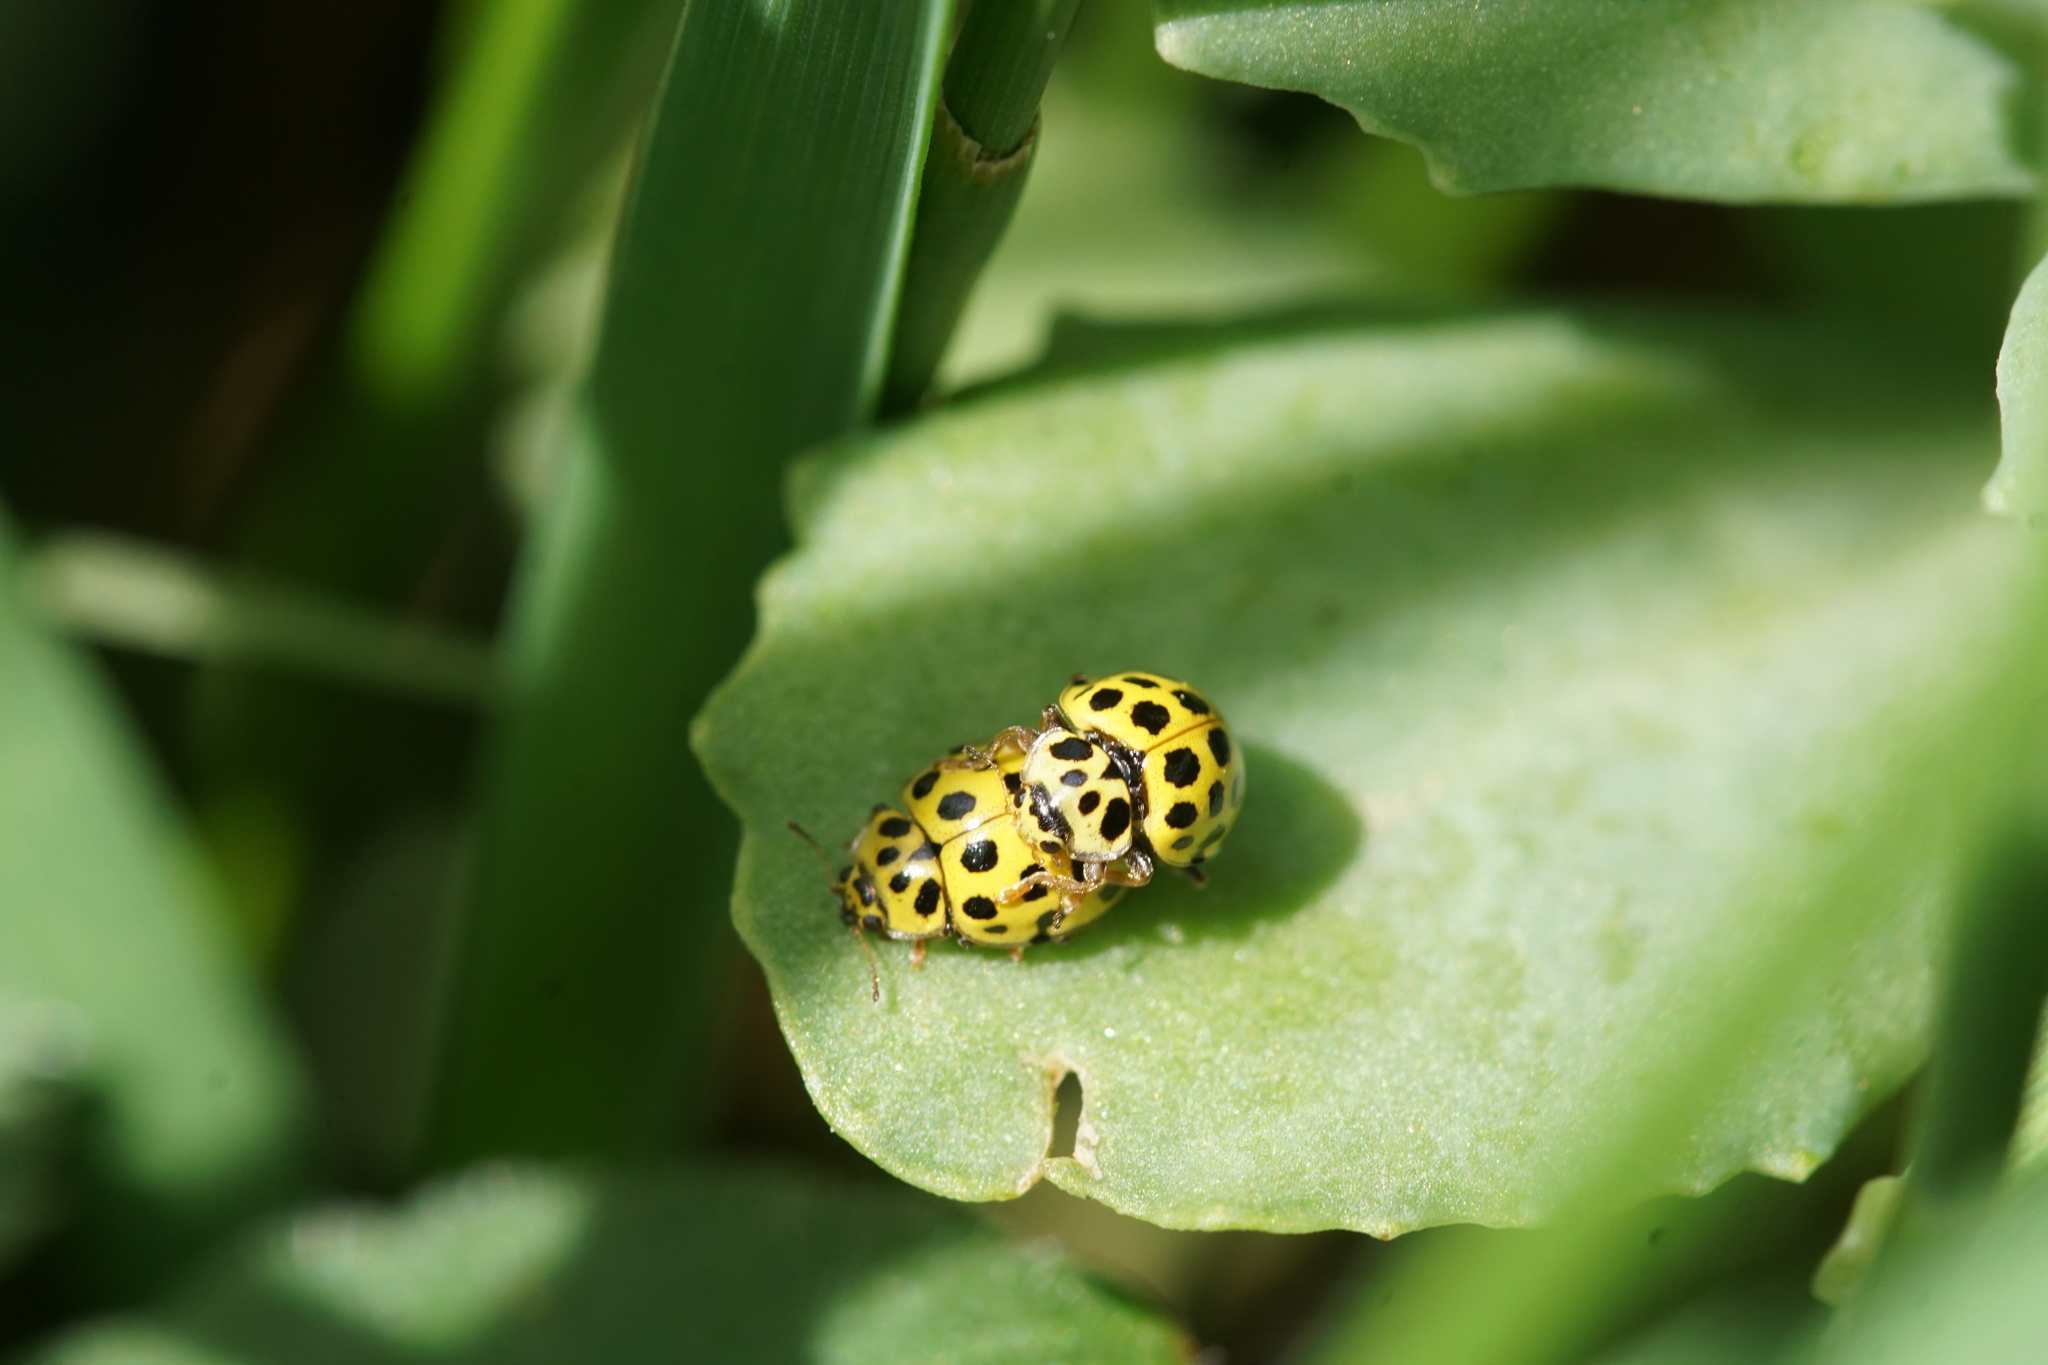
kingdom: Animalia
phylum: Arthropoda
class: Insecta
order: Coleoptera
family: Coccinellidae
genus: Psyllobora
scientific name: Psyllobora vigintiduopunctata
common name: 22-spot ladybird
